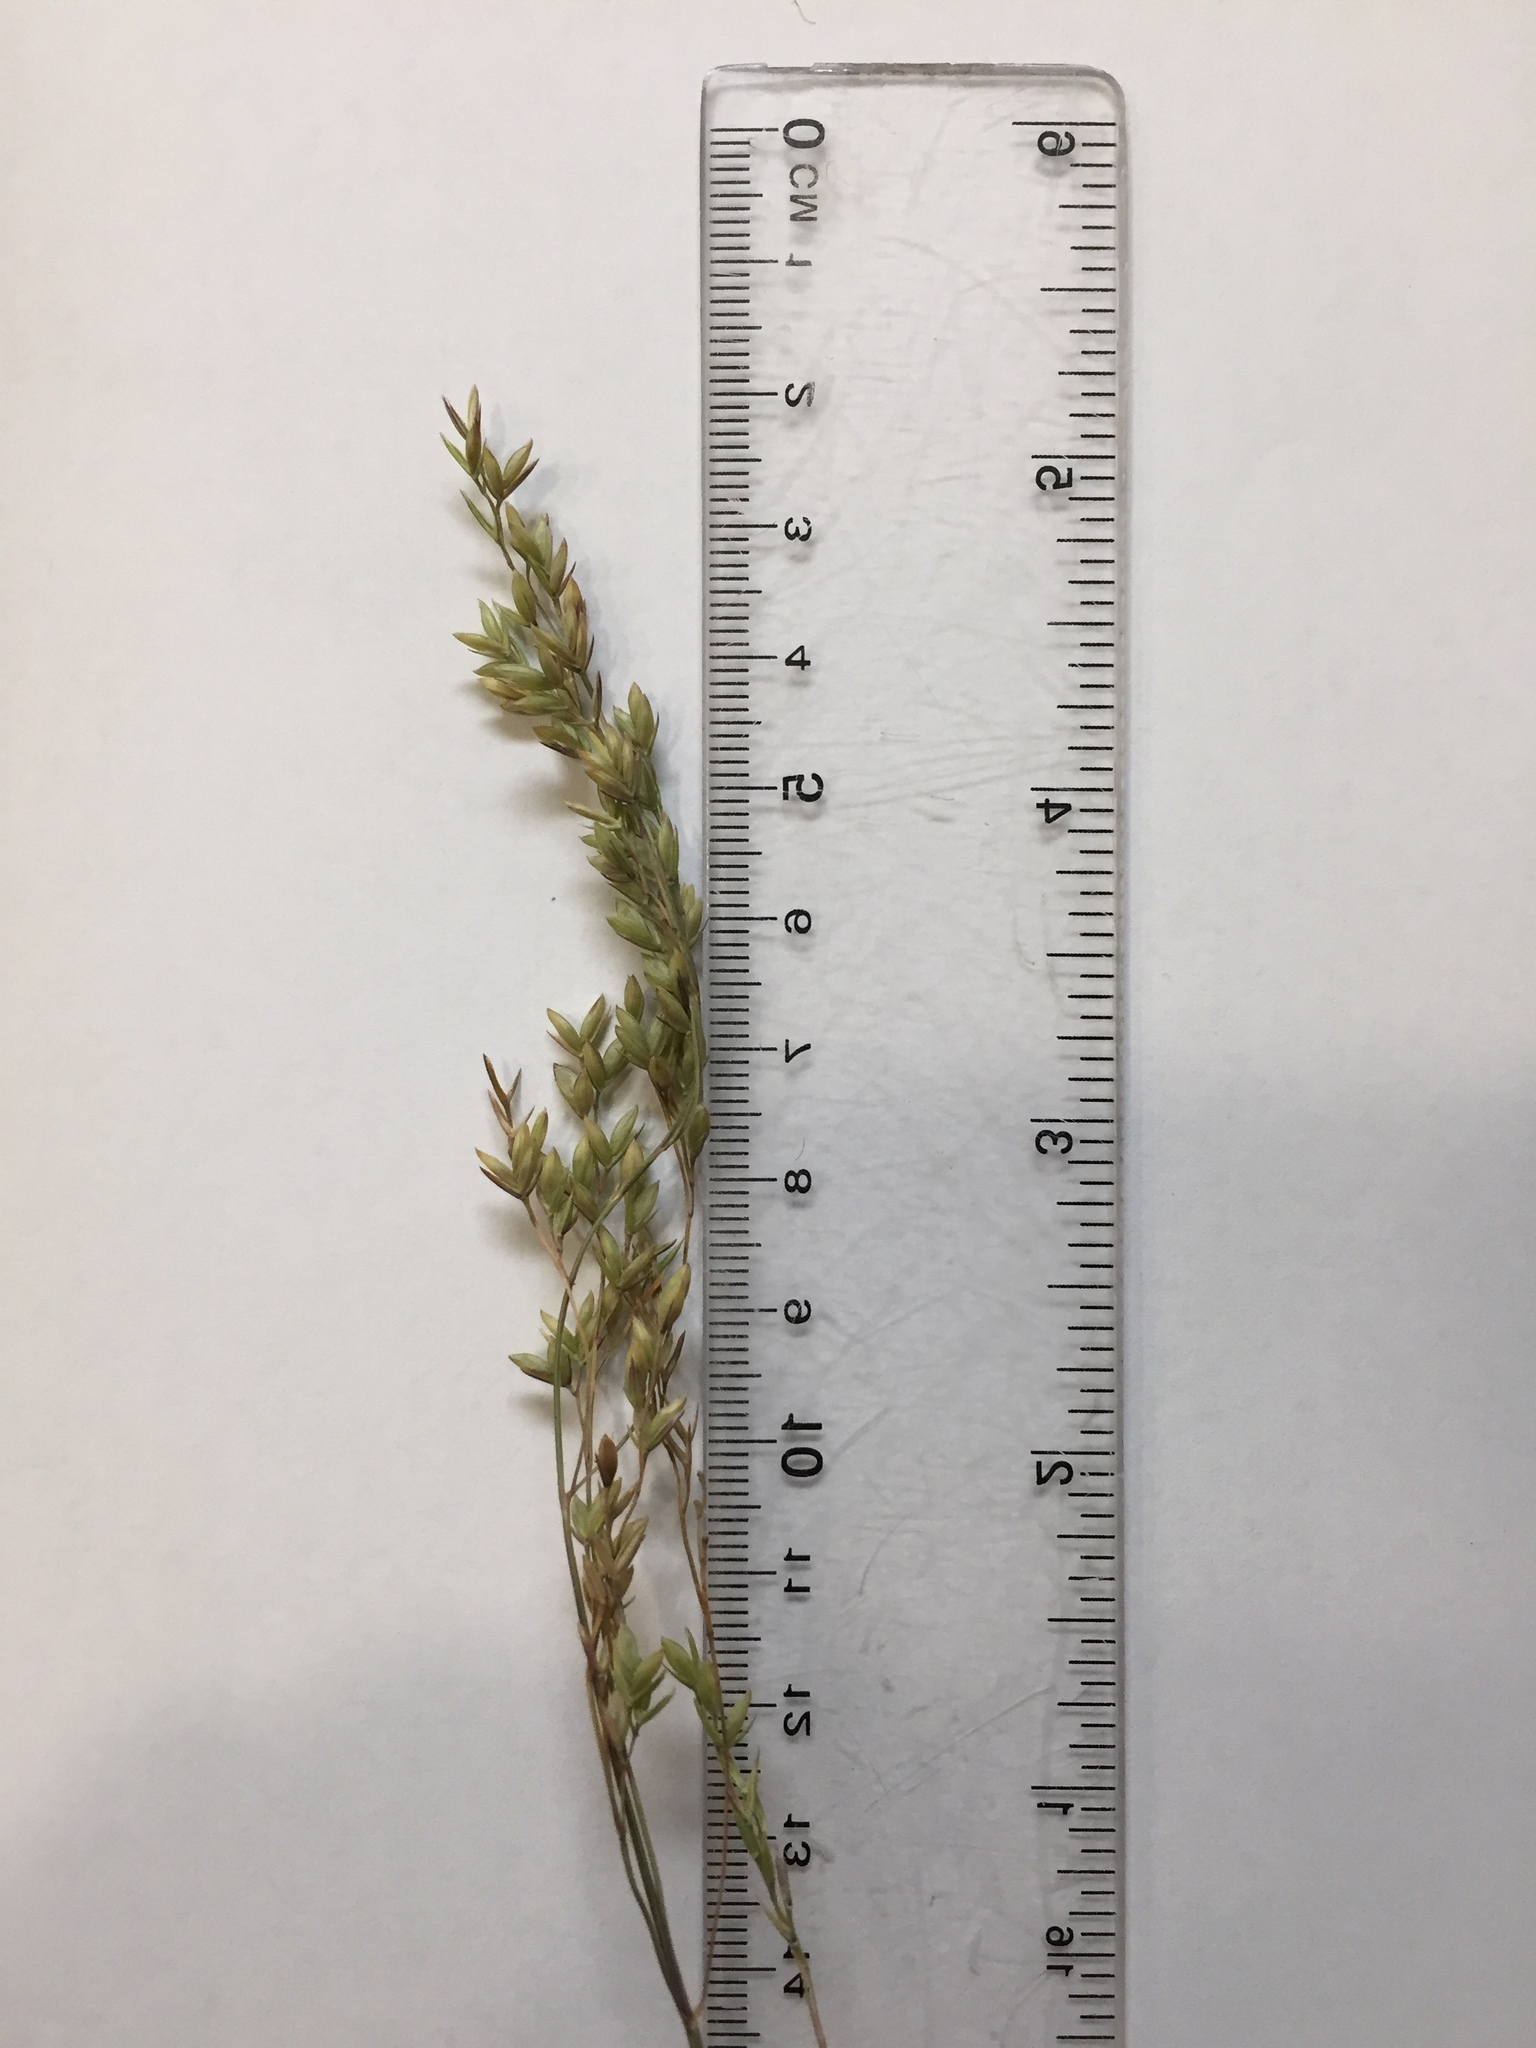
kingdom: Plantae
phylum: Tracheophyta
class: Liliopsida
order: Poales
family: Poaceae
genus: Festuca
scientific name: Festuca paradoxa
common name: Cluster fescue
